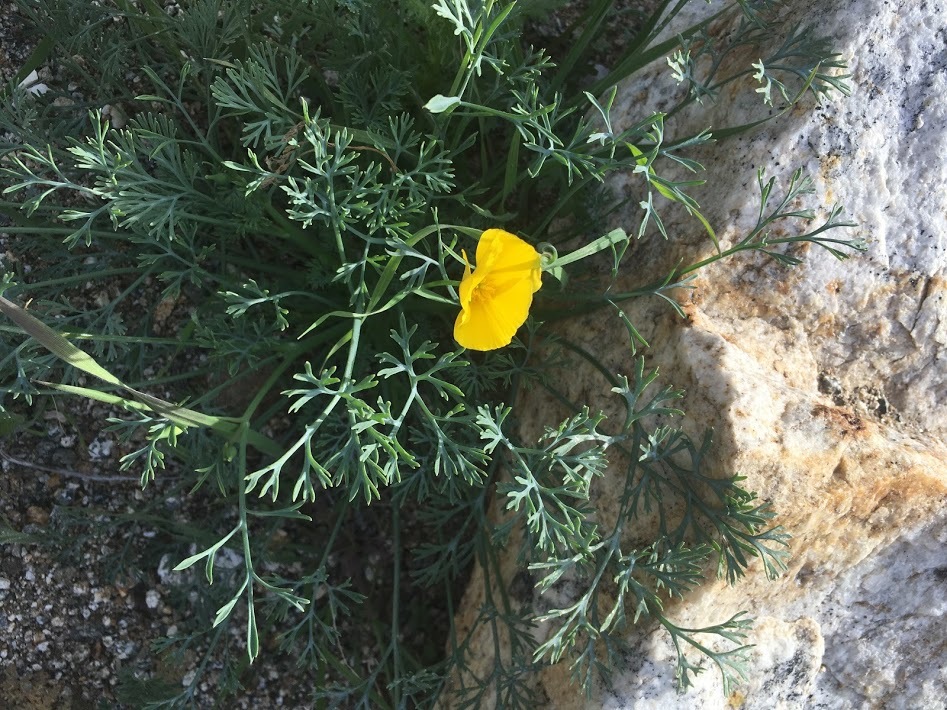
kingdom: Plantae
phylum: Tracheophyta
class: Magnoliopsida
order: Ranunculales
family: Papaveraceae
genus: Eschscholzia
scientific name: Eschscholzia minutiflora
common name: Small-flower california-poppy
